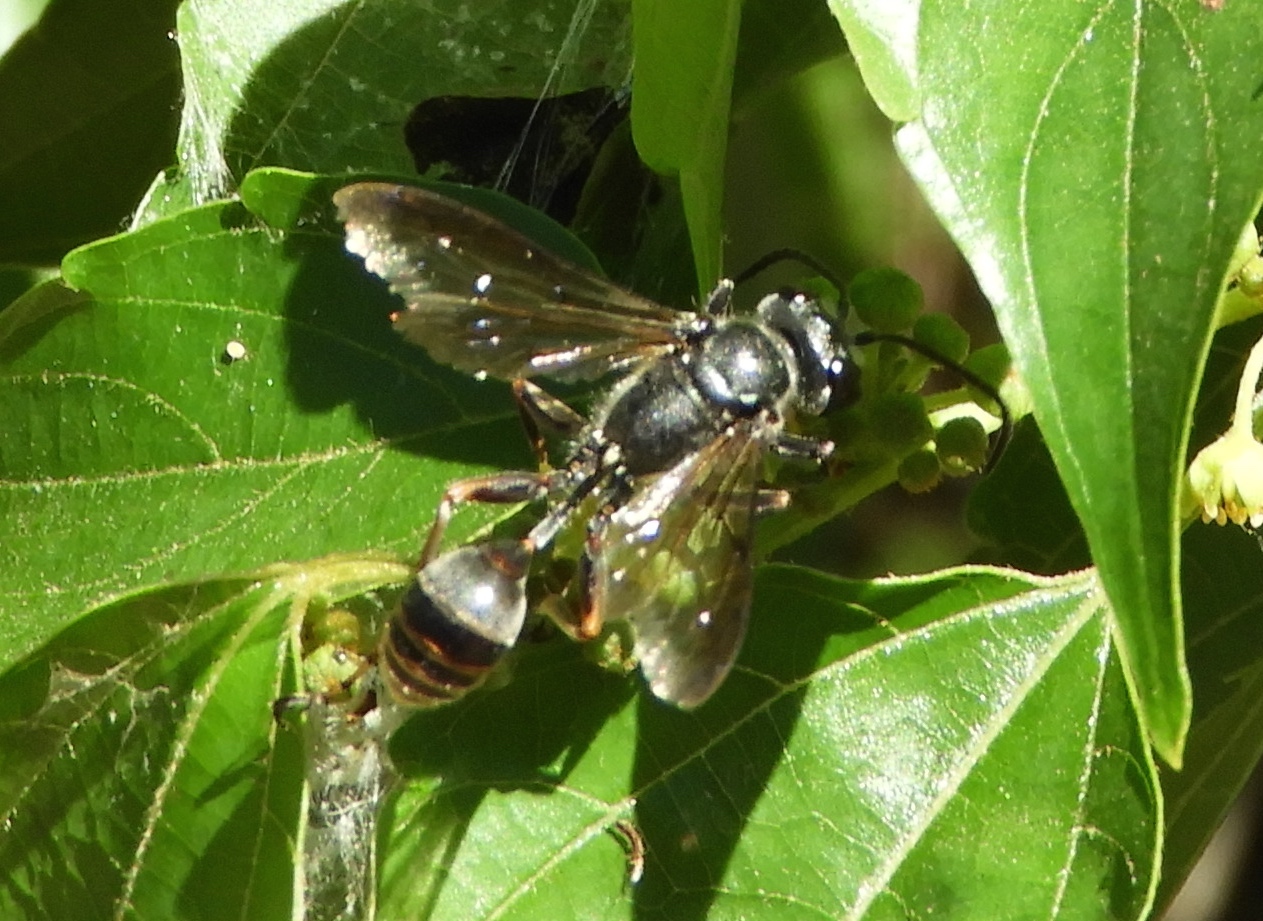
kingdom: Animalia
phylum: Arthropoda
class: Insecta
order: Hymenoptera
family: Sphecidae
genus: Isodontia
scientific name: Isodontia
